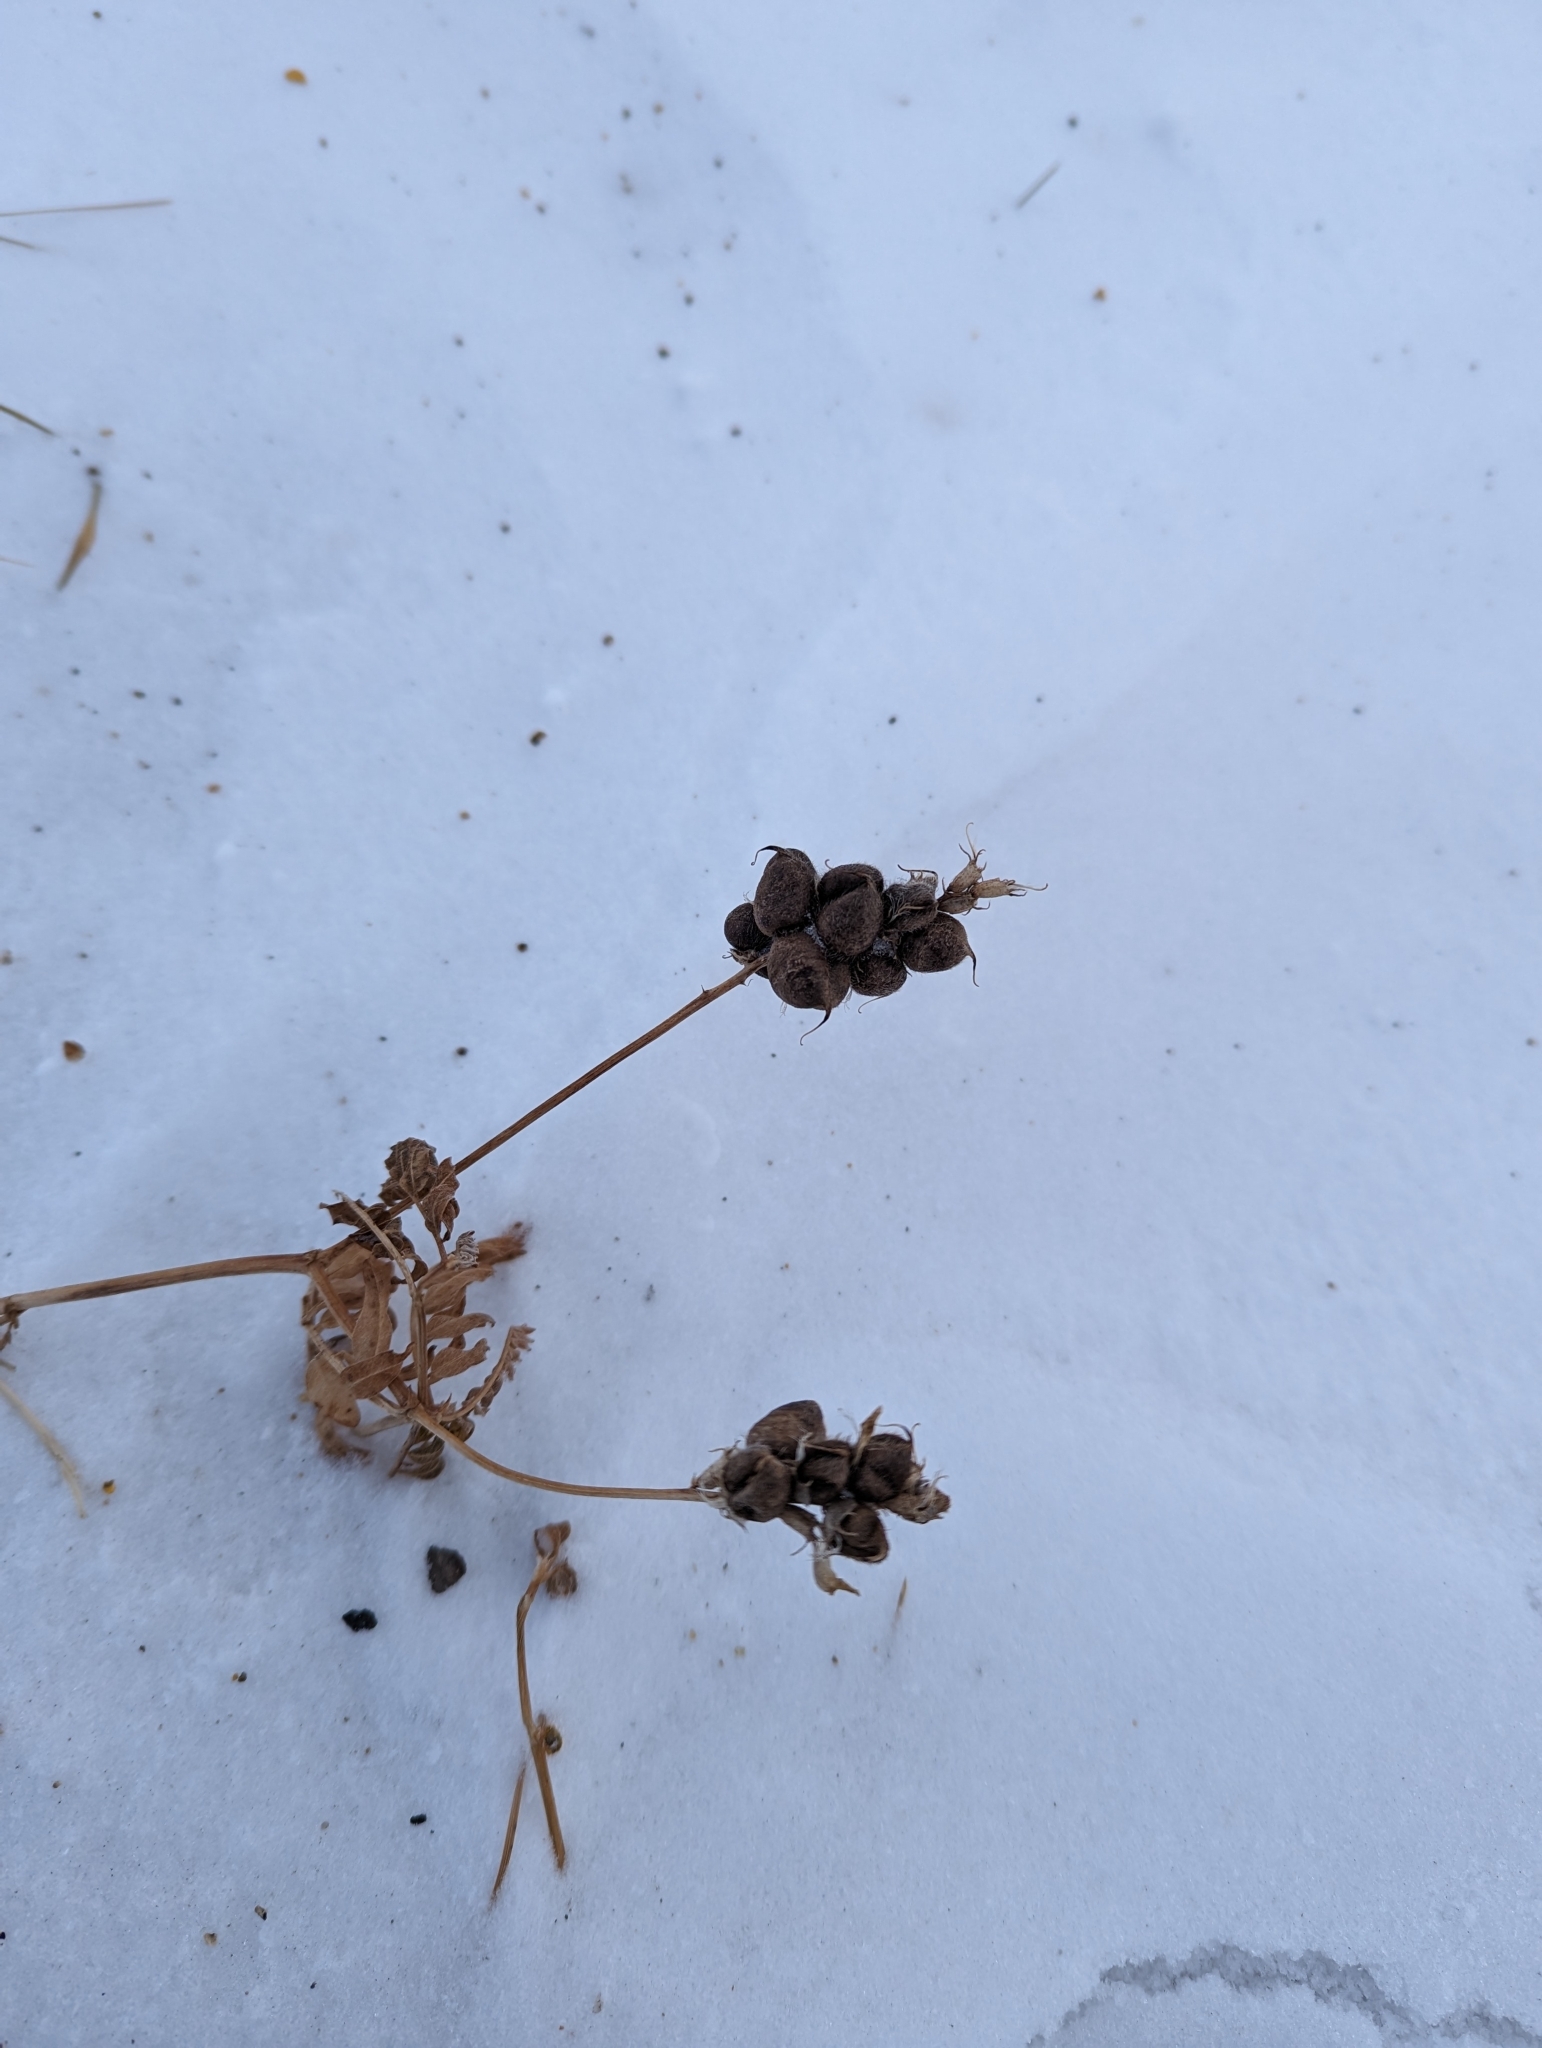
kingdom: Plantae
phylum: Tracheophyta
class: Magnoliopsida
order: Fabales
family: Fabaceae
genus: Astragalus
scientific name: Astragalus cicer
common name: Chick-pea milk-vetch
